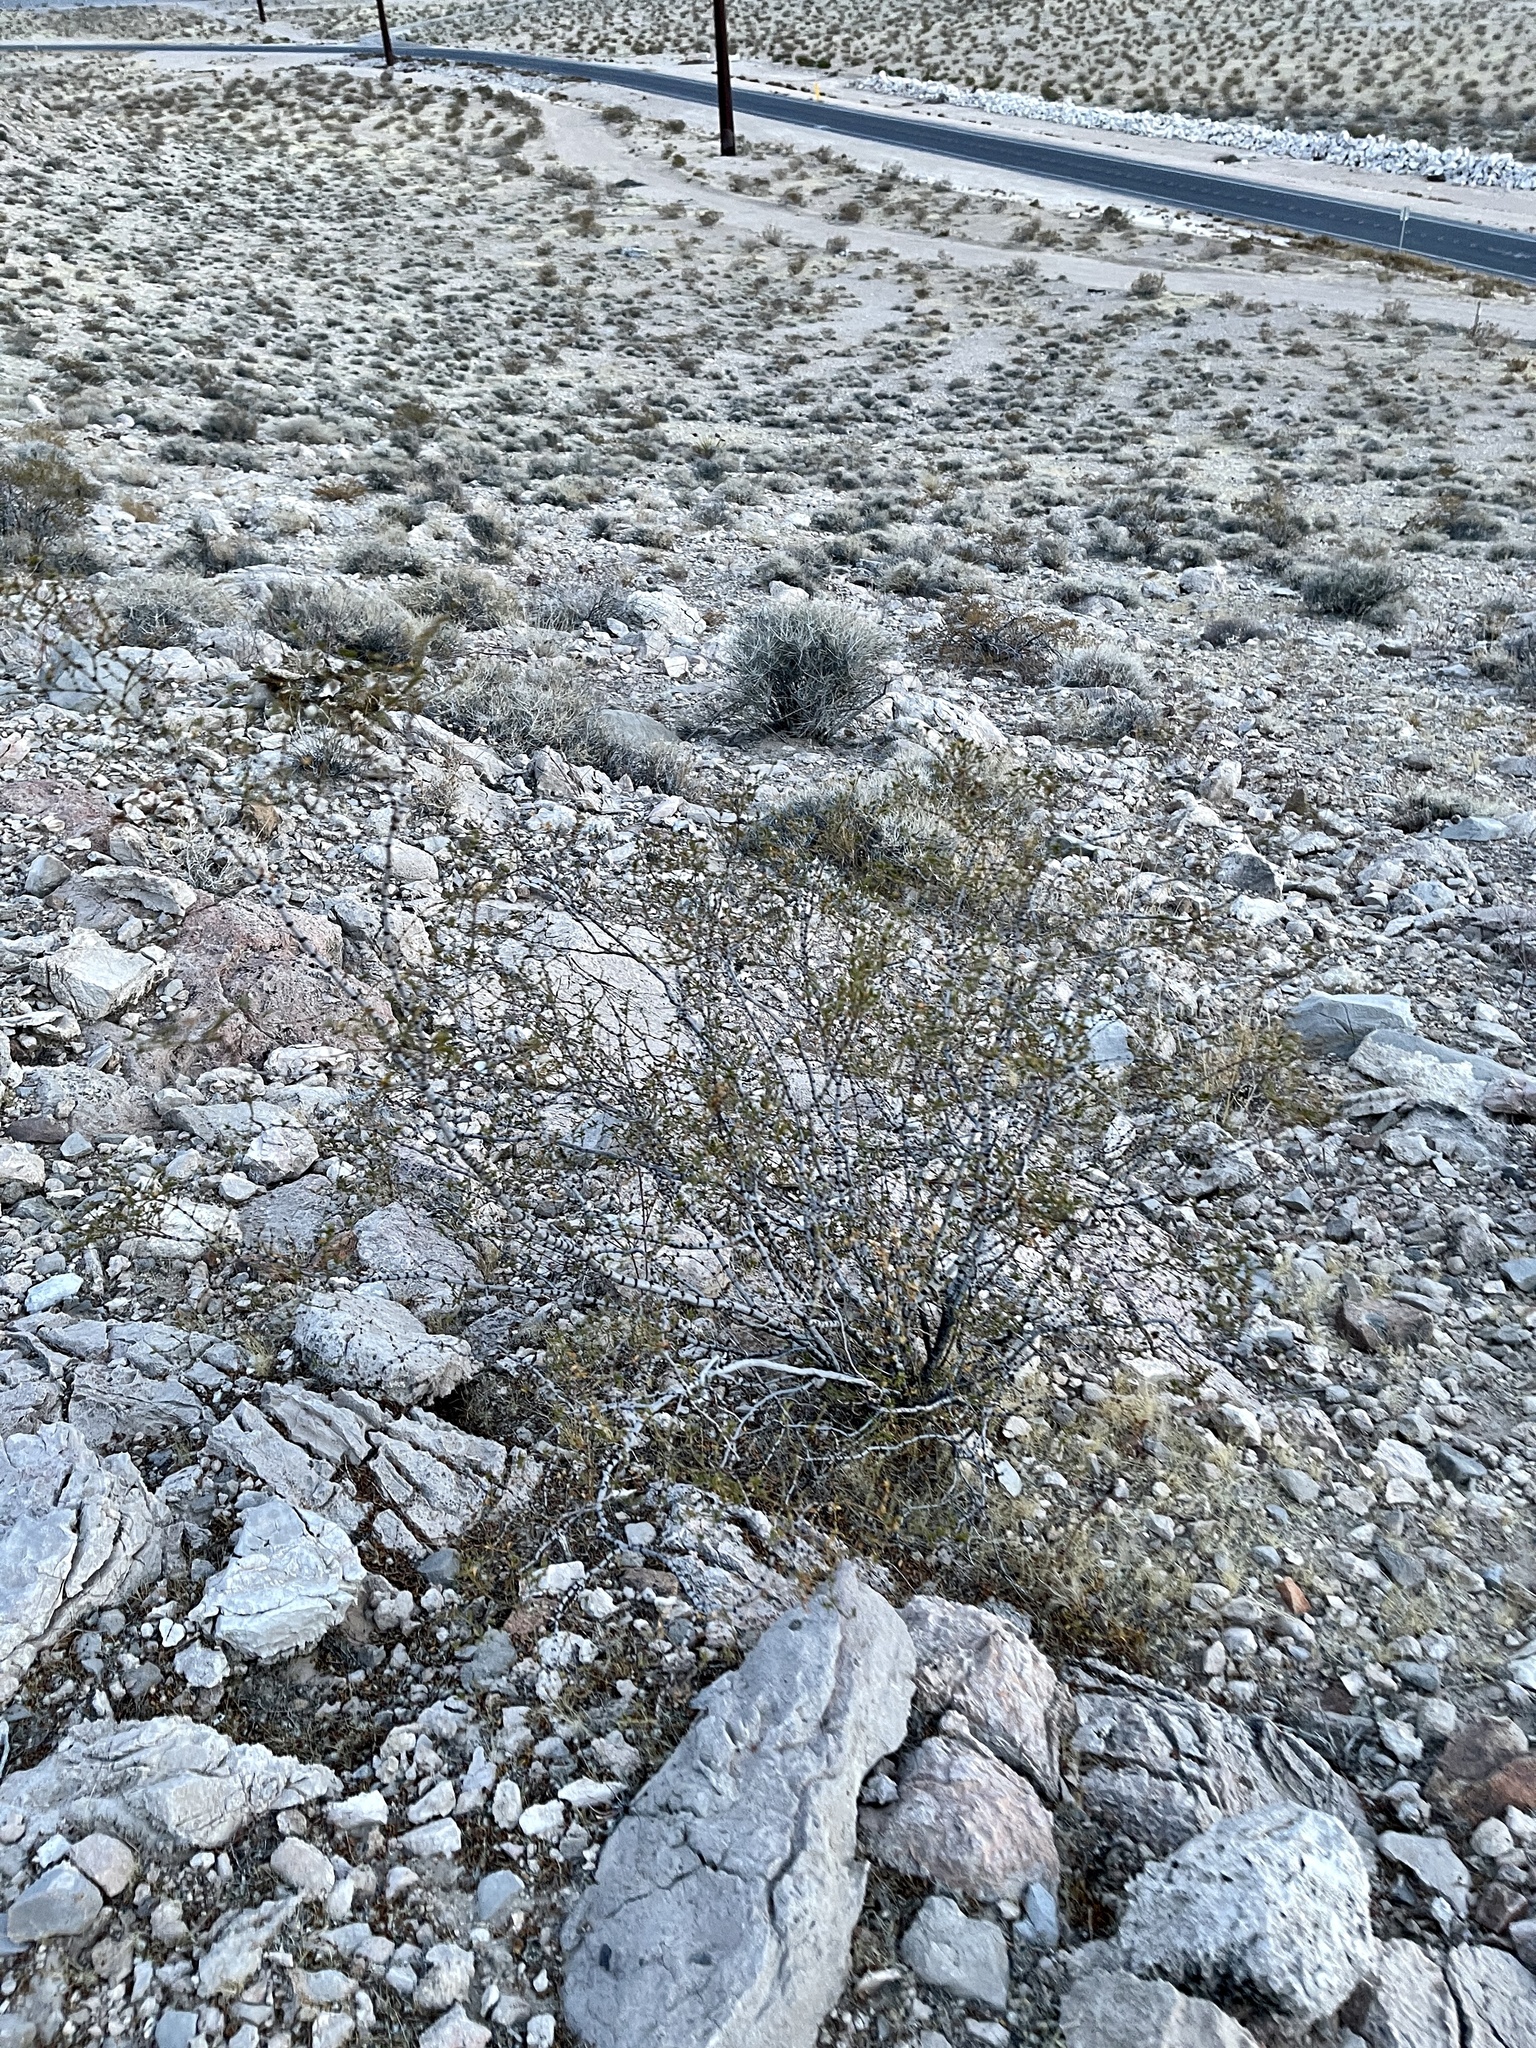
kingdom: Plantae
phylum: Tracheophyta
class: Magnoliopsida
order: Zygophyllales
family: Zygophyllaceae
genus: Larrea
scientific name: Larrea tridentata
